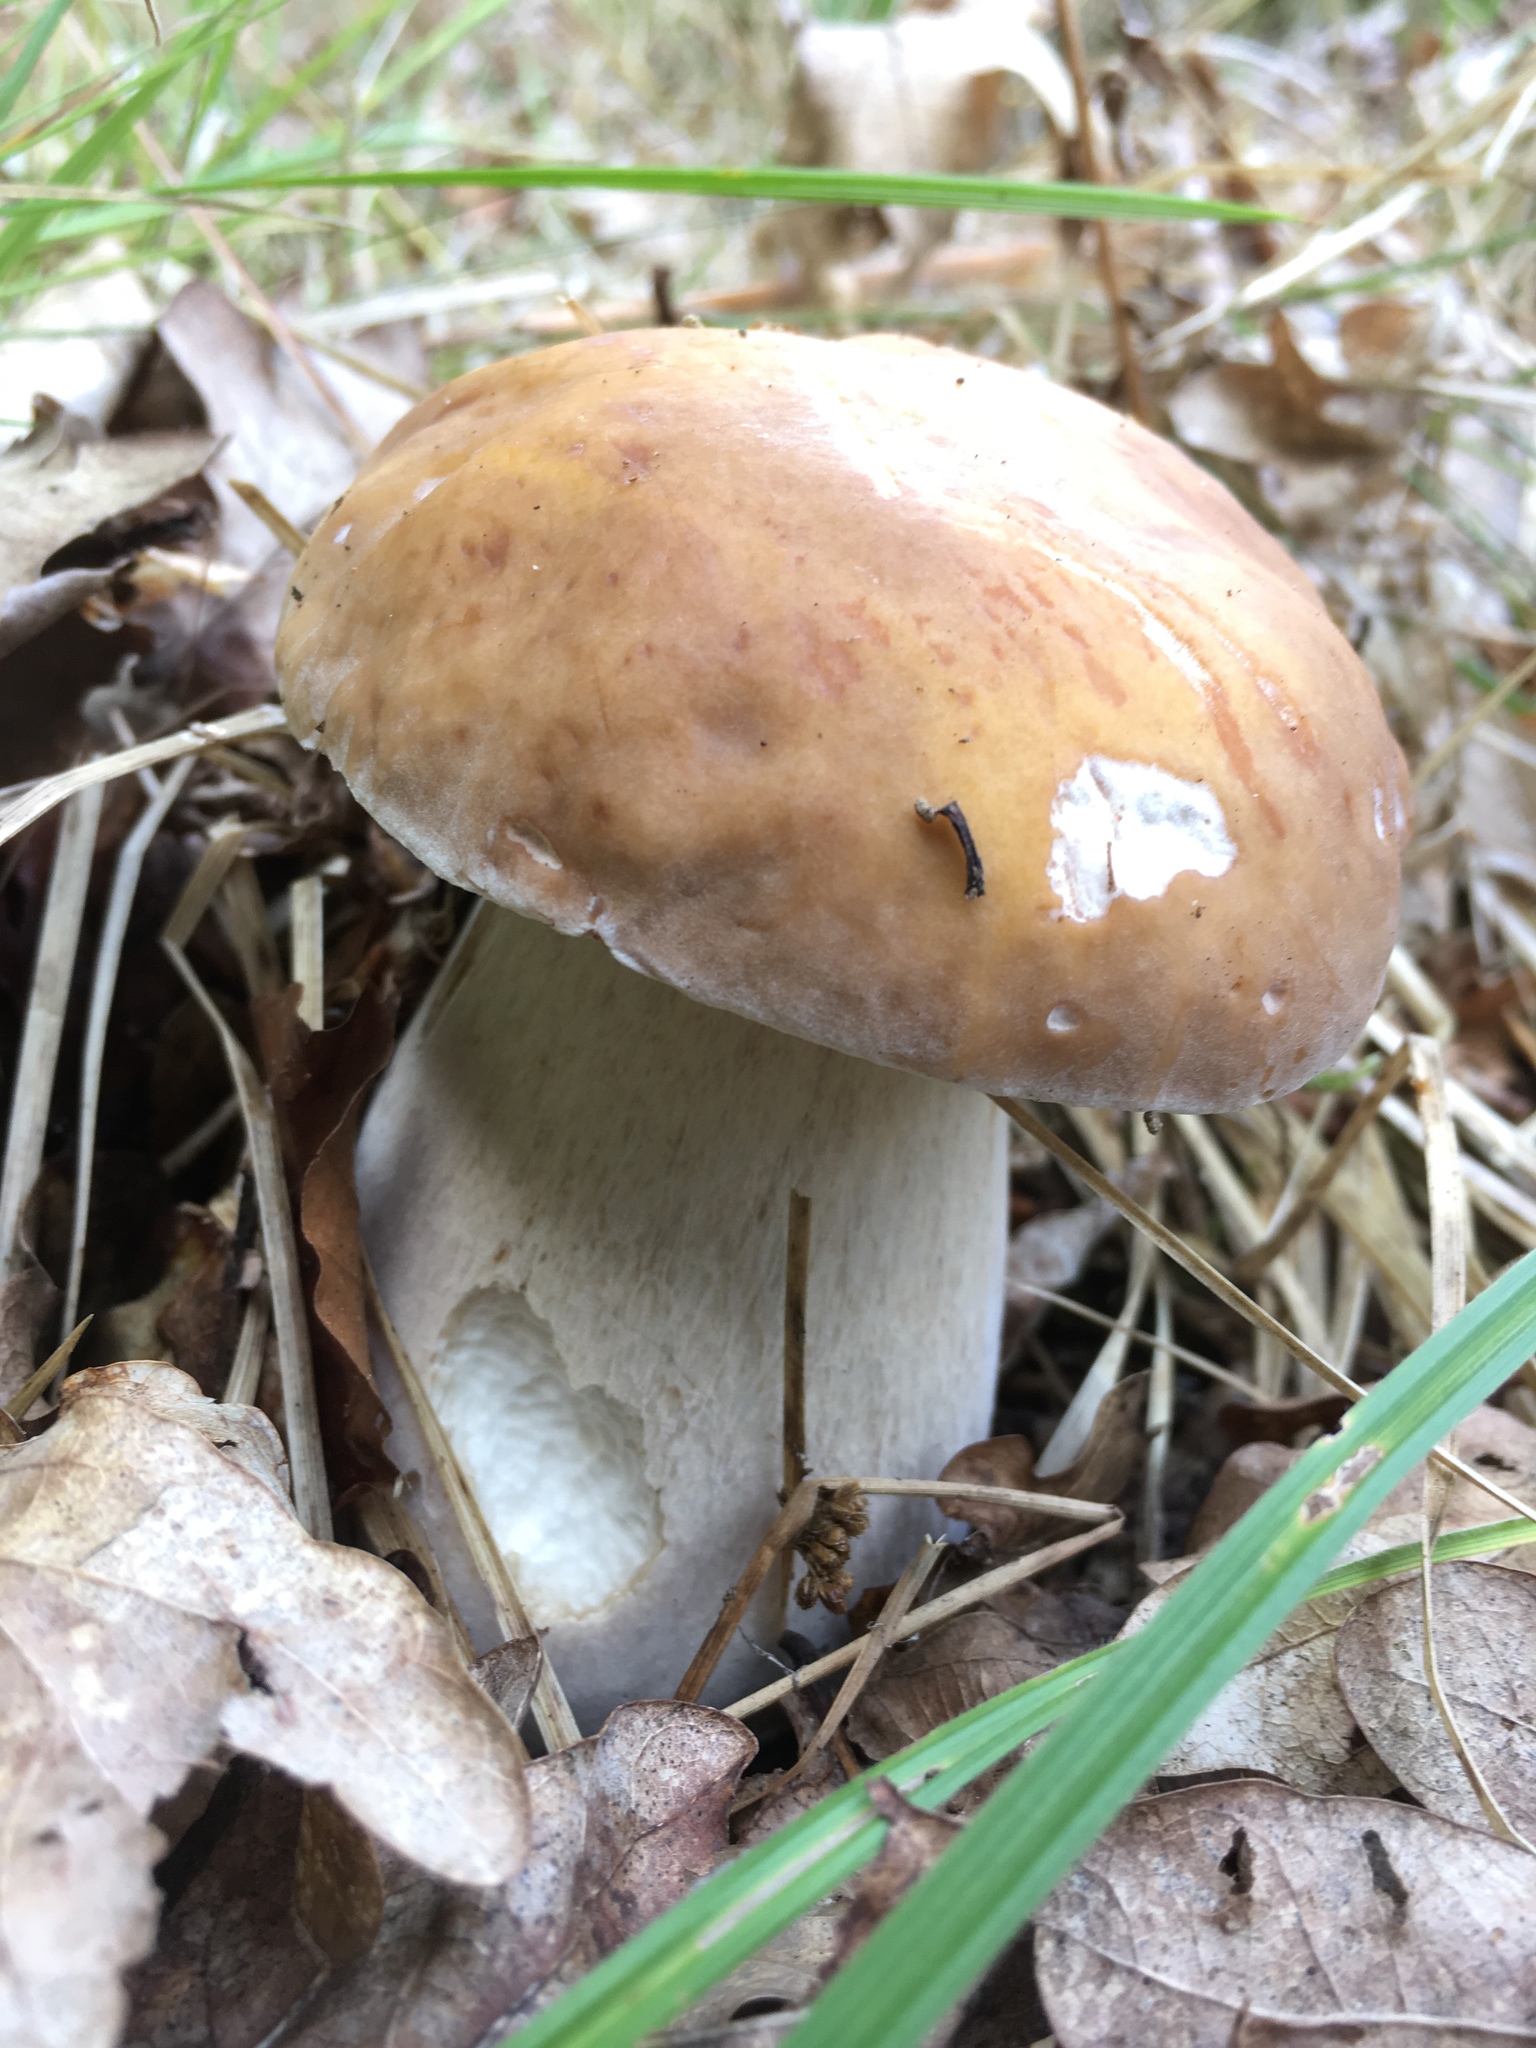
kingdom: Fungi
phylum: Basidiomycota
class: Agaricomycetes
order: Boletales
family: Boletaceae
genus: Boletus
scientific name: Boletus edulis
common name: Cep
